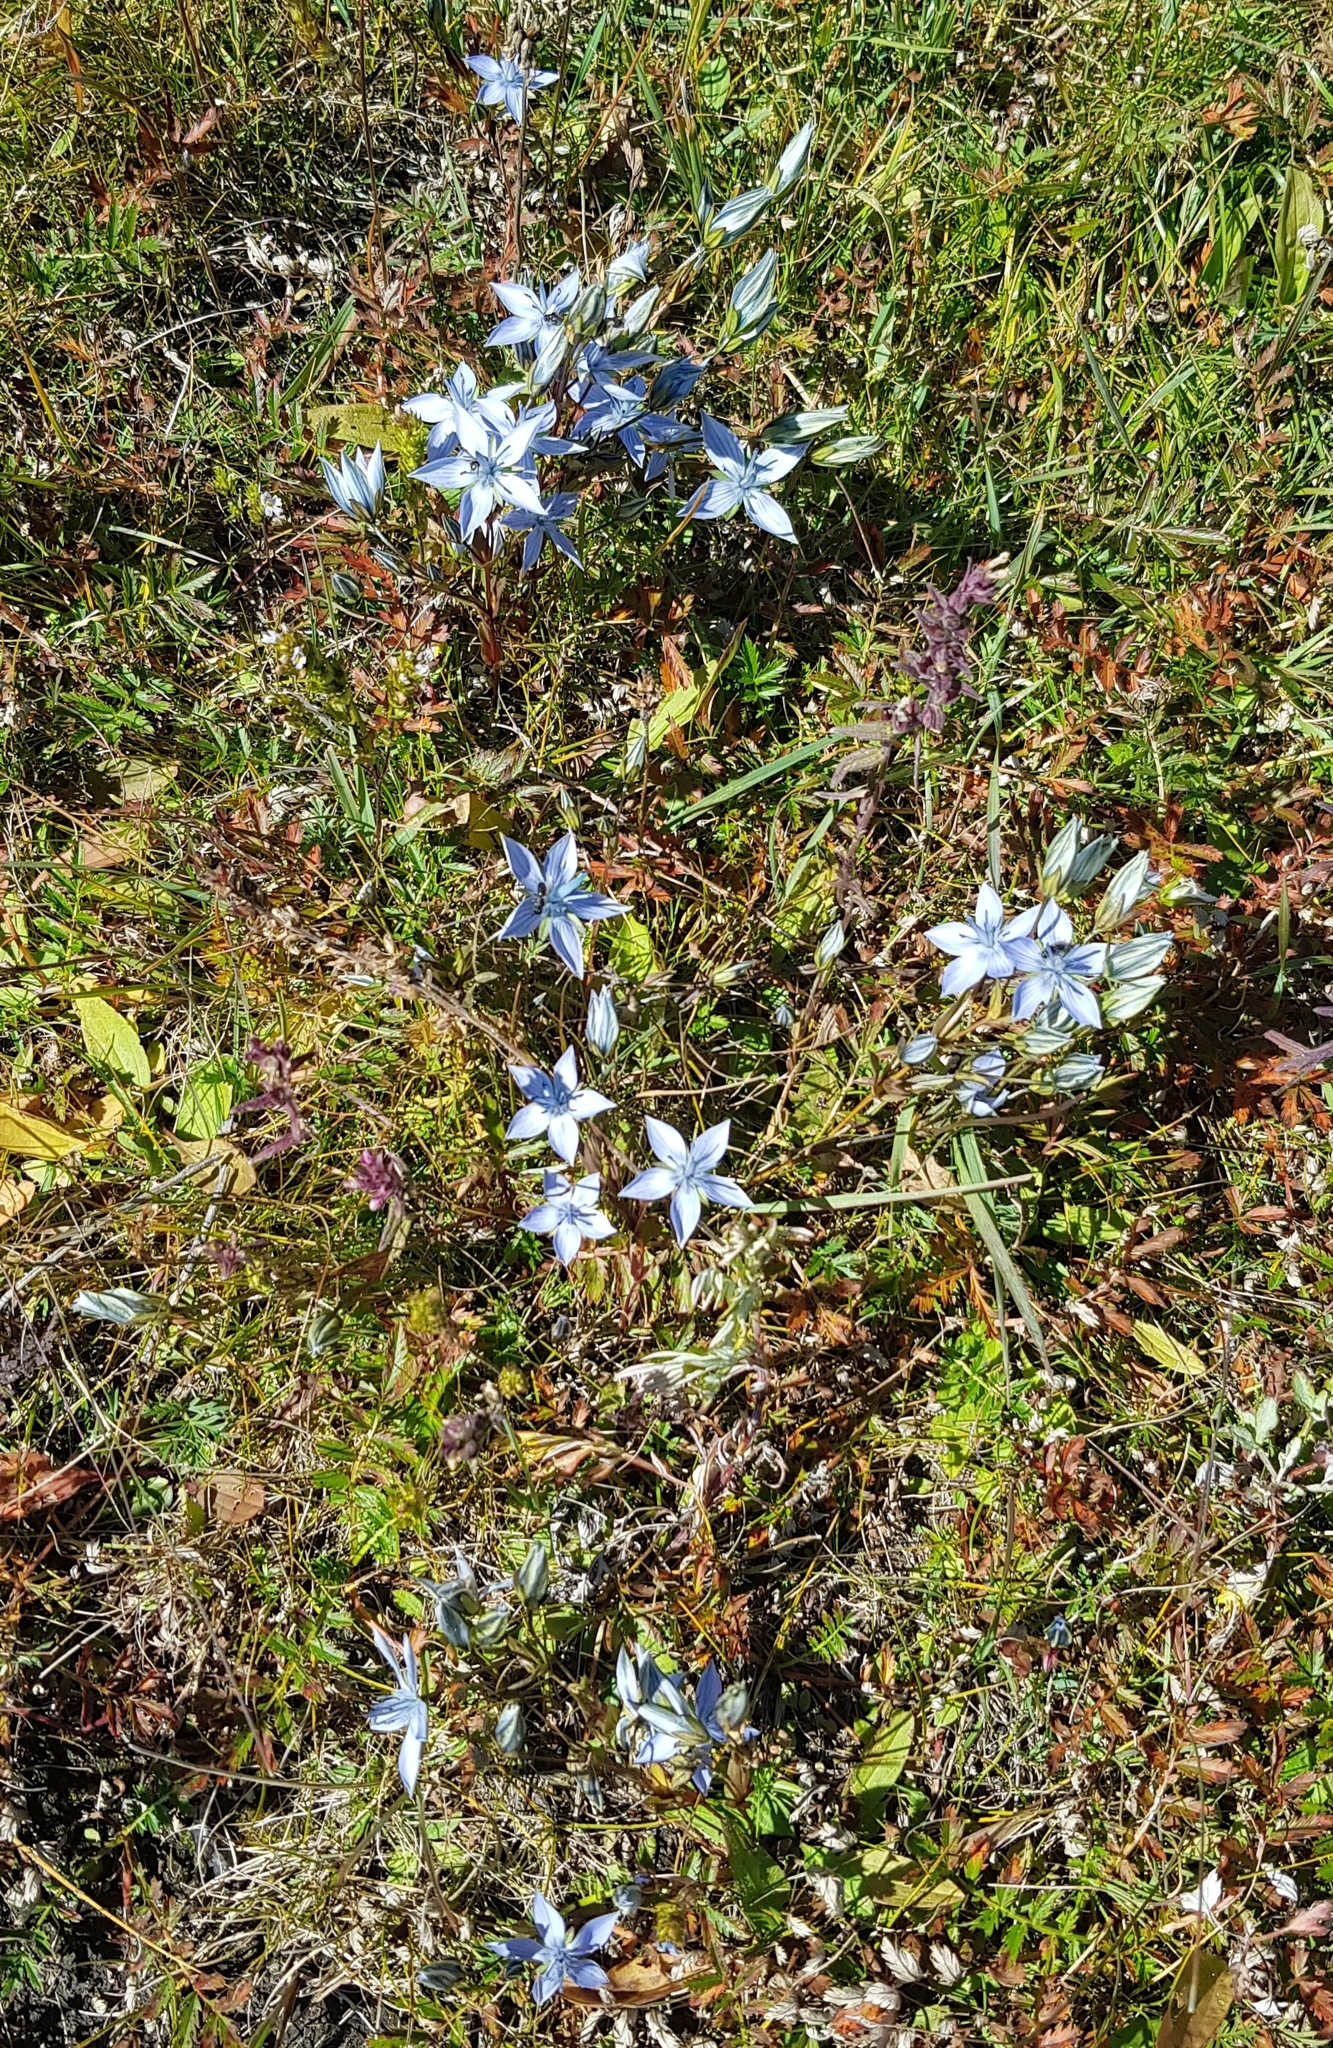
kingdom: Plantae
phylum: Tracheophyta
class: Magnoliopsida
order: Gentianales
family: Gentianaceae
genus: Lomatogonium
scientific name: Lomatogonium carinthiacum
